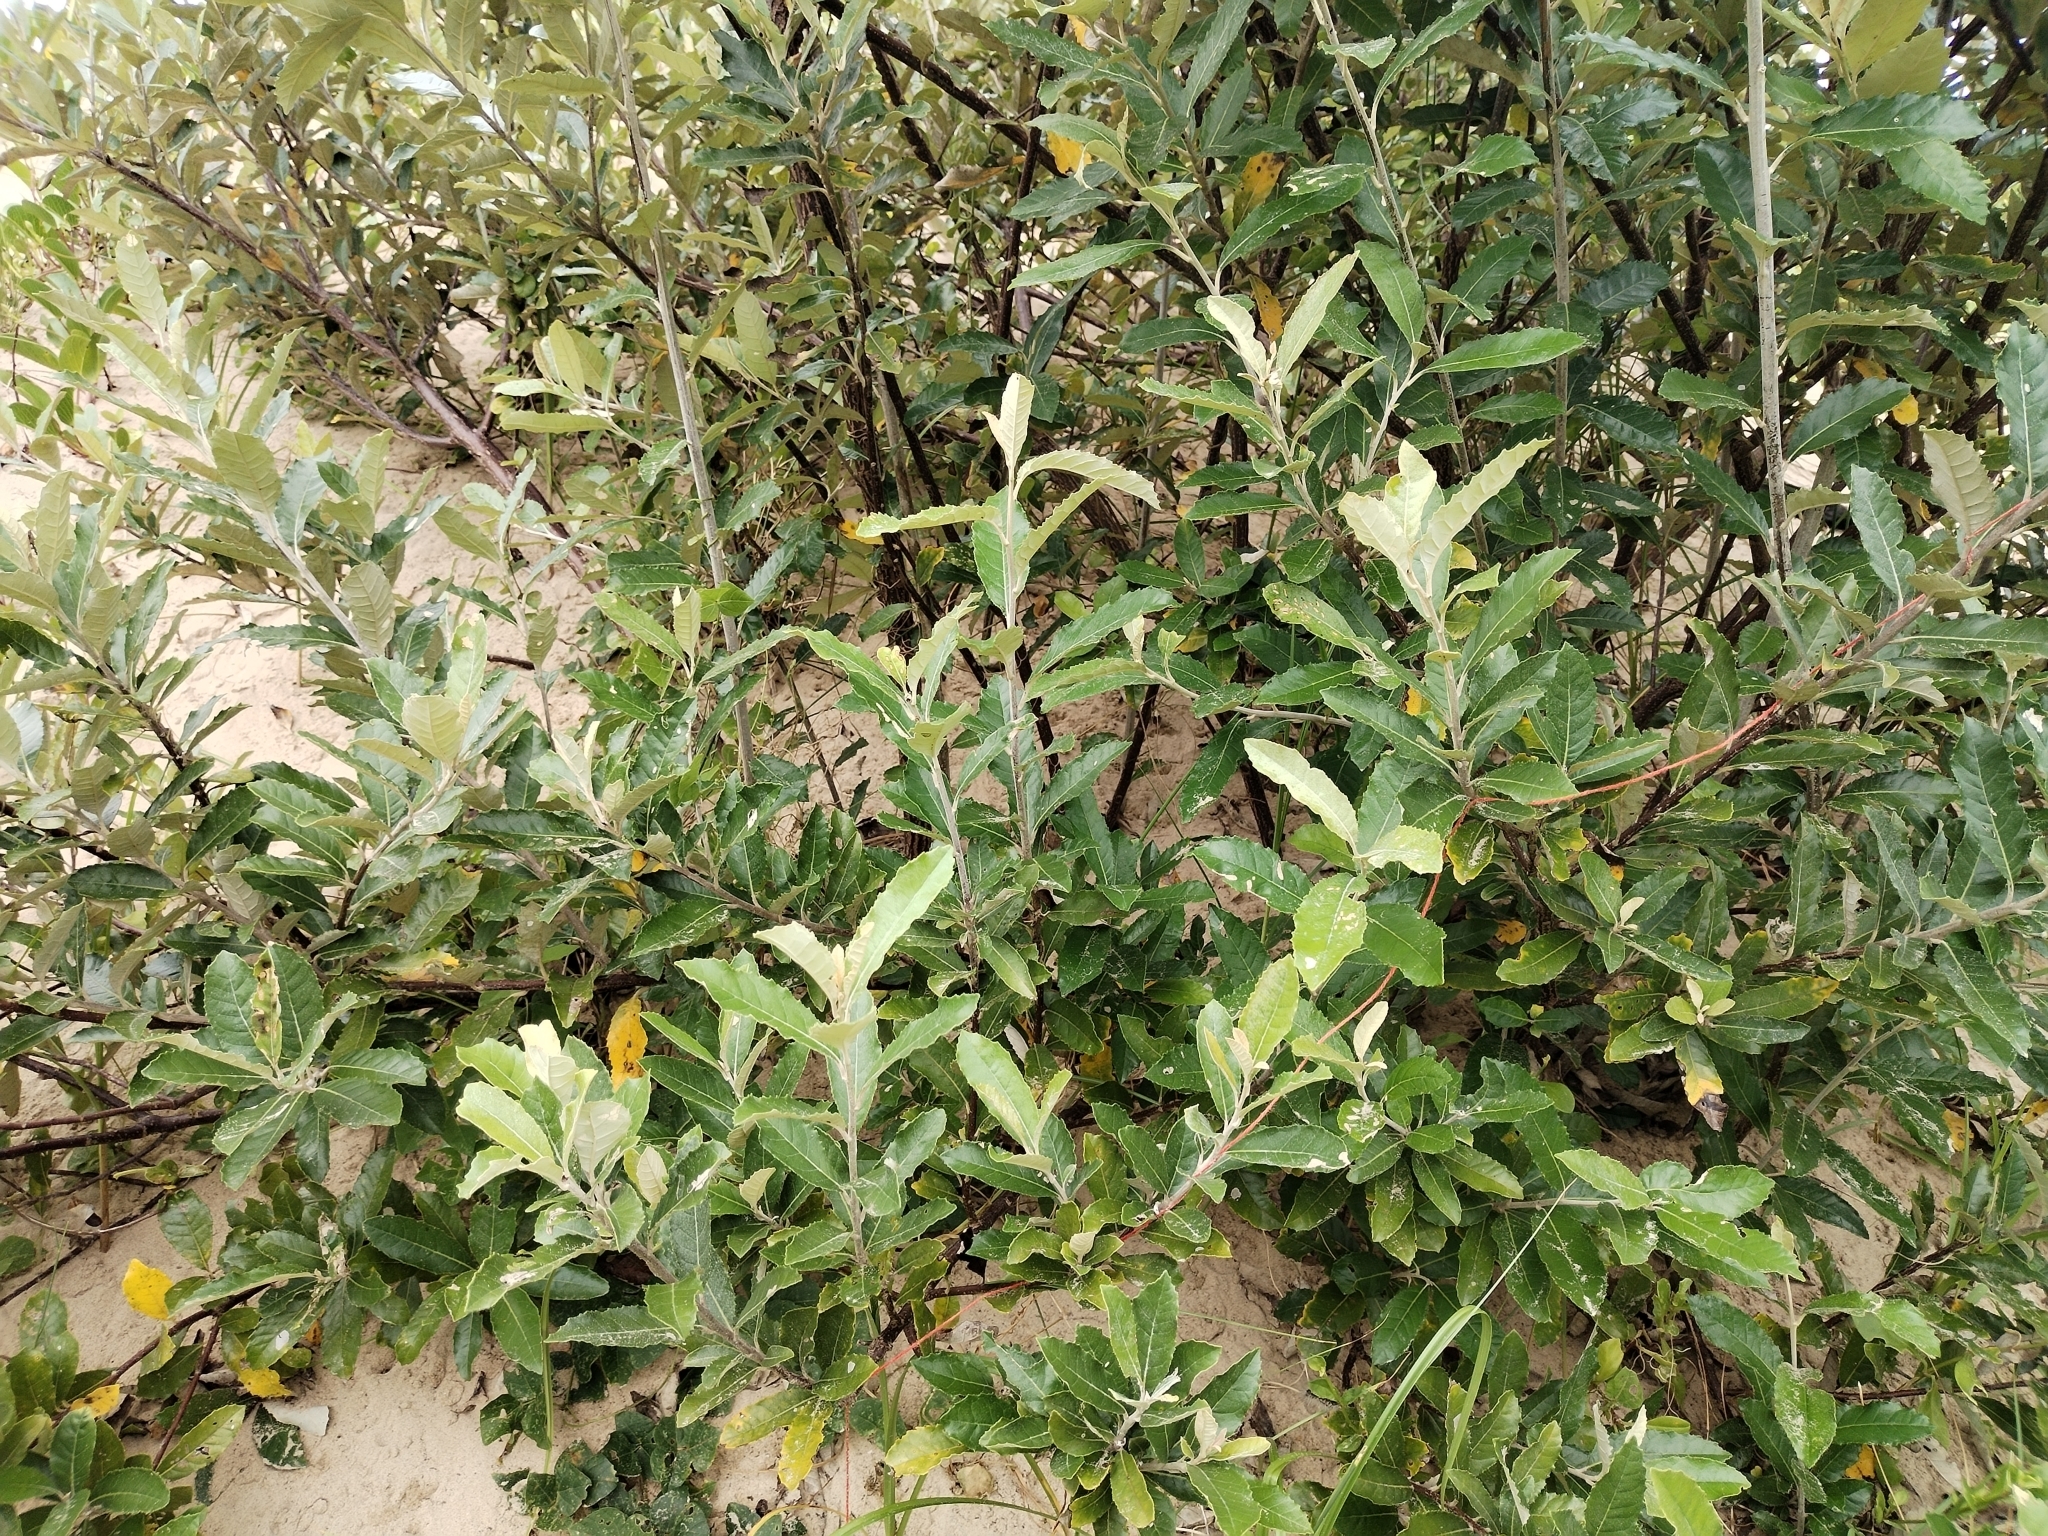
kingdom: Plantae
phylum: Tracheophyta
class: Magnoliopsida
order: Asterales
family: Asteraceae
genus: Brachylaena
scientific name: Brachylaena discolor
